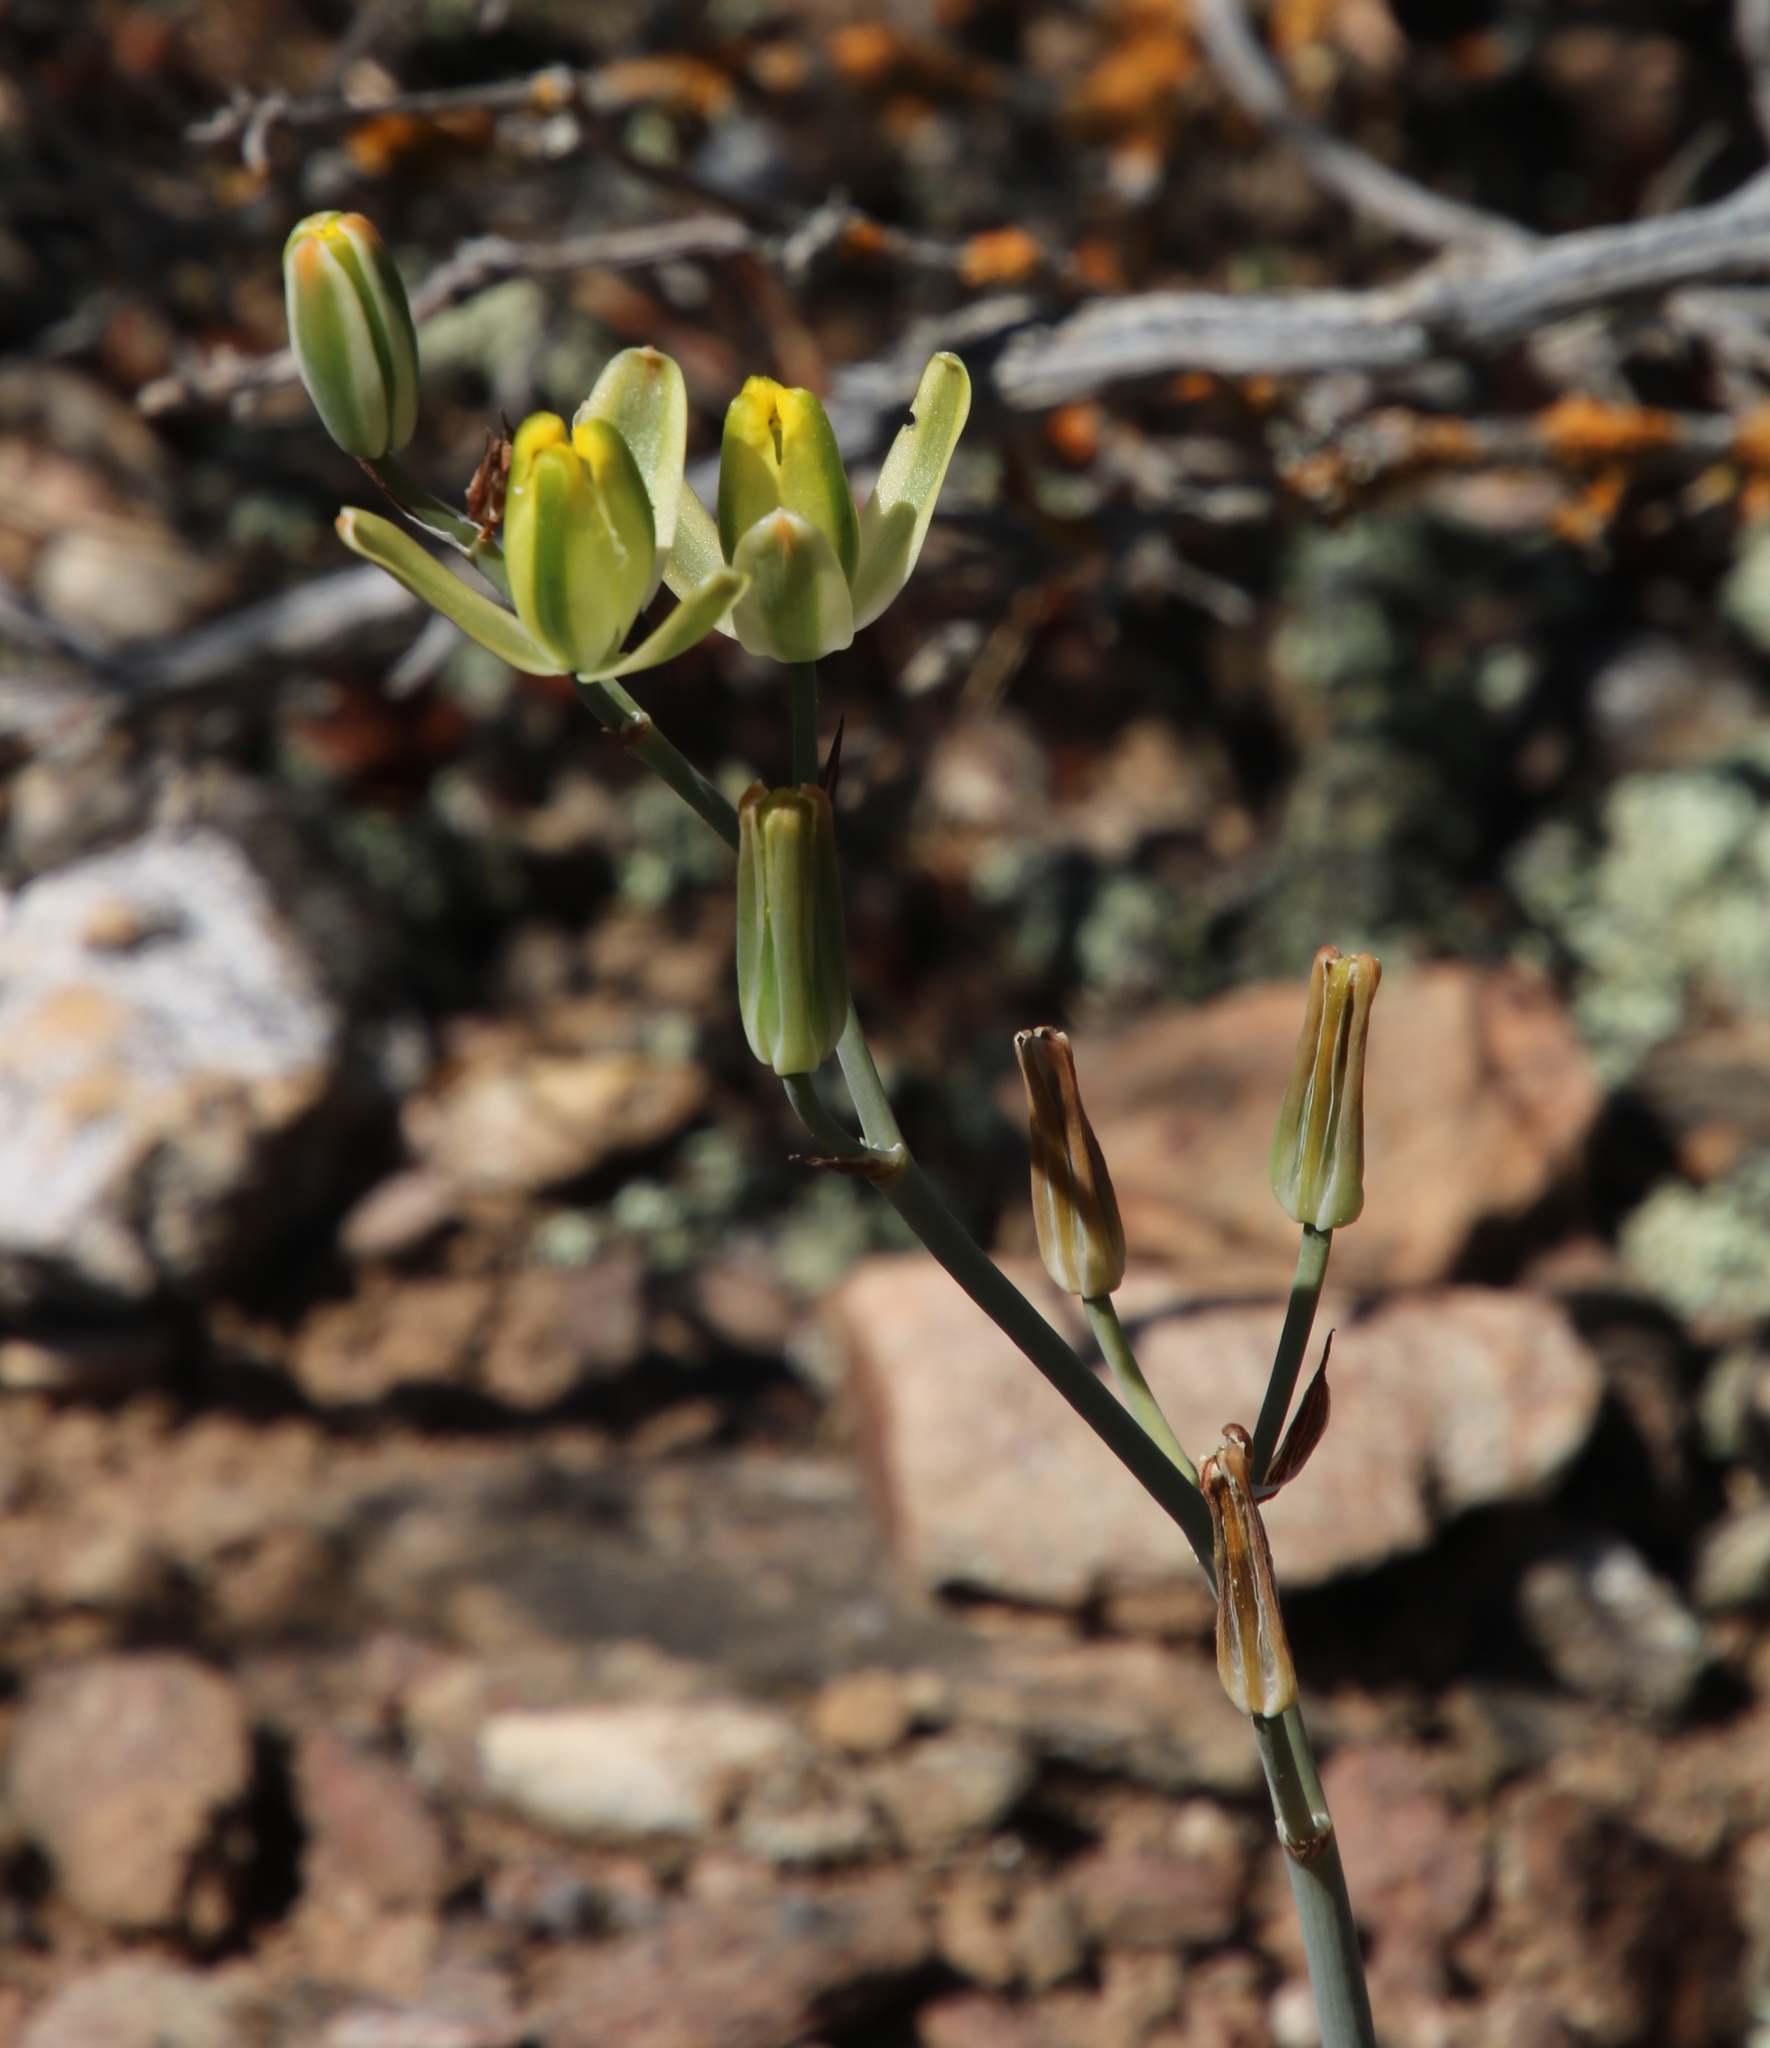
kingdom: Plantae
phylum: Tracheophyta
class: Liliopsida
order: Asparagales
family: Asparagaceae
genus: Albuca
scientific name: Albuca aurea
